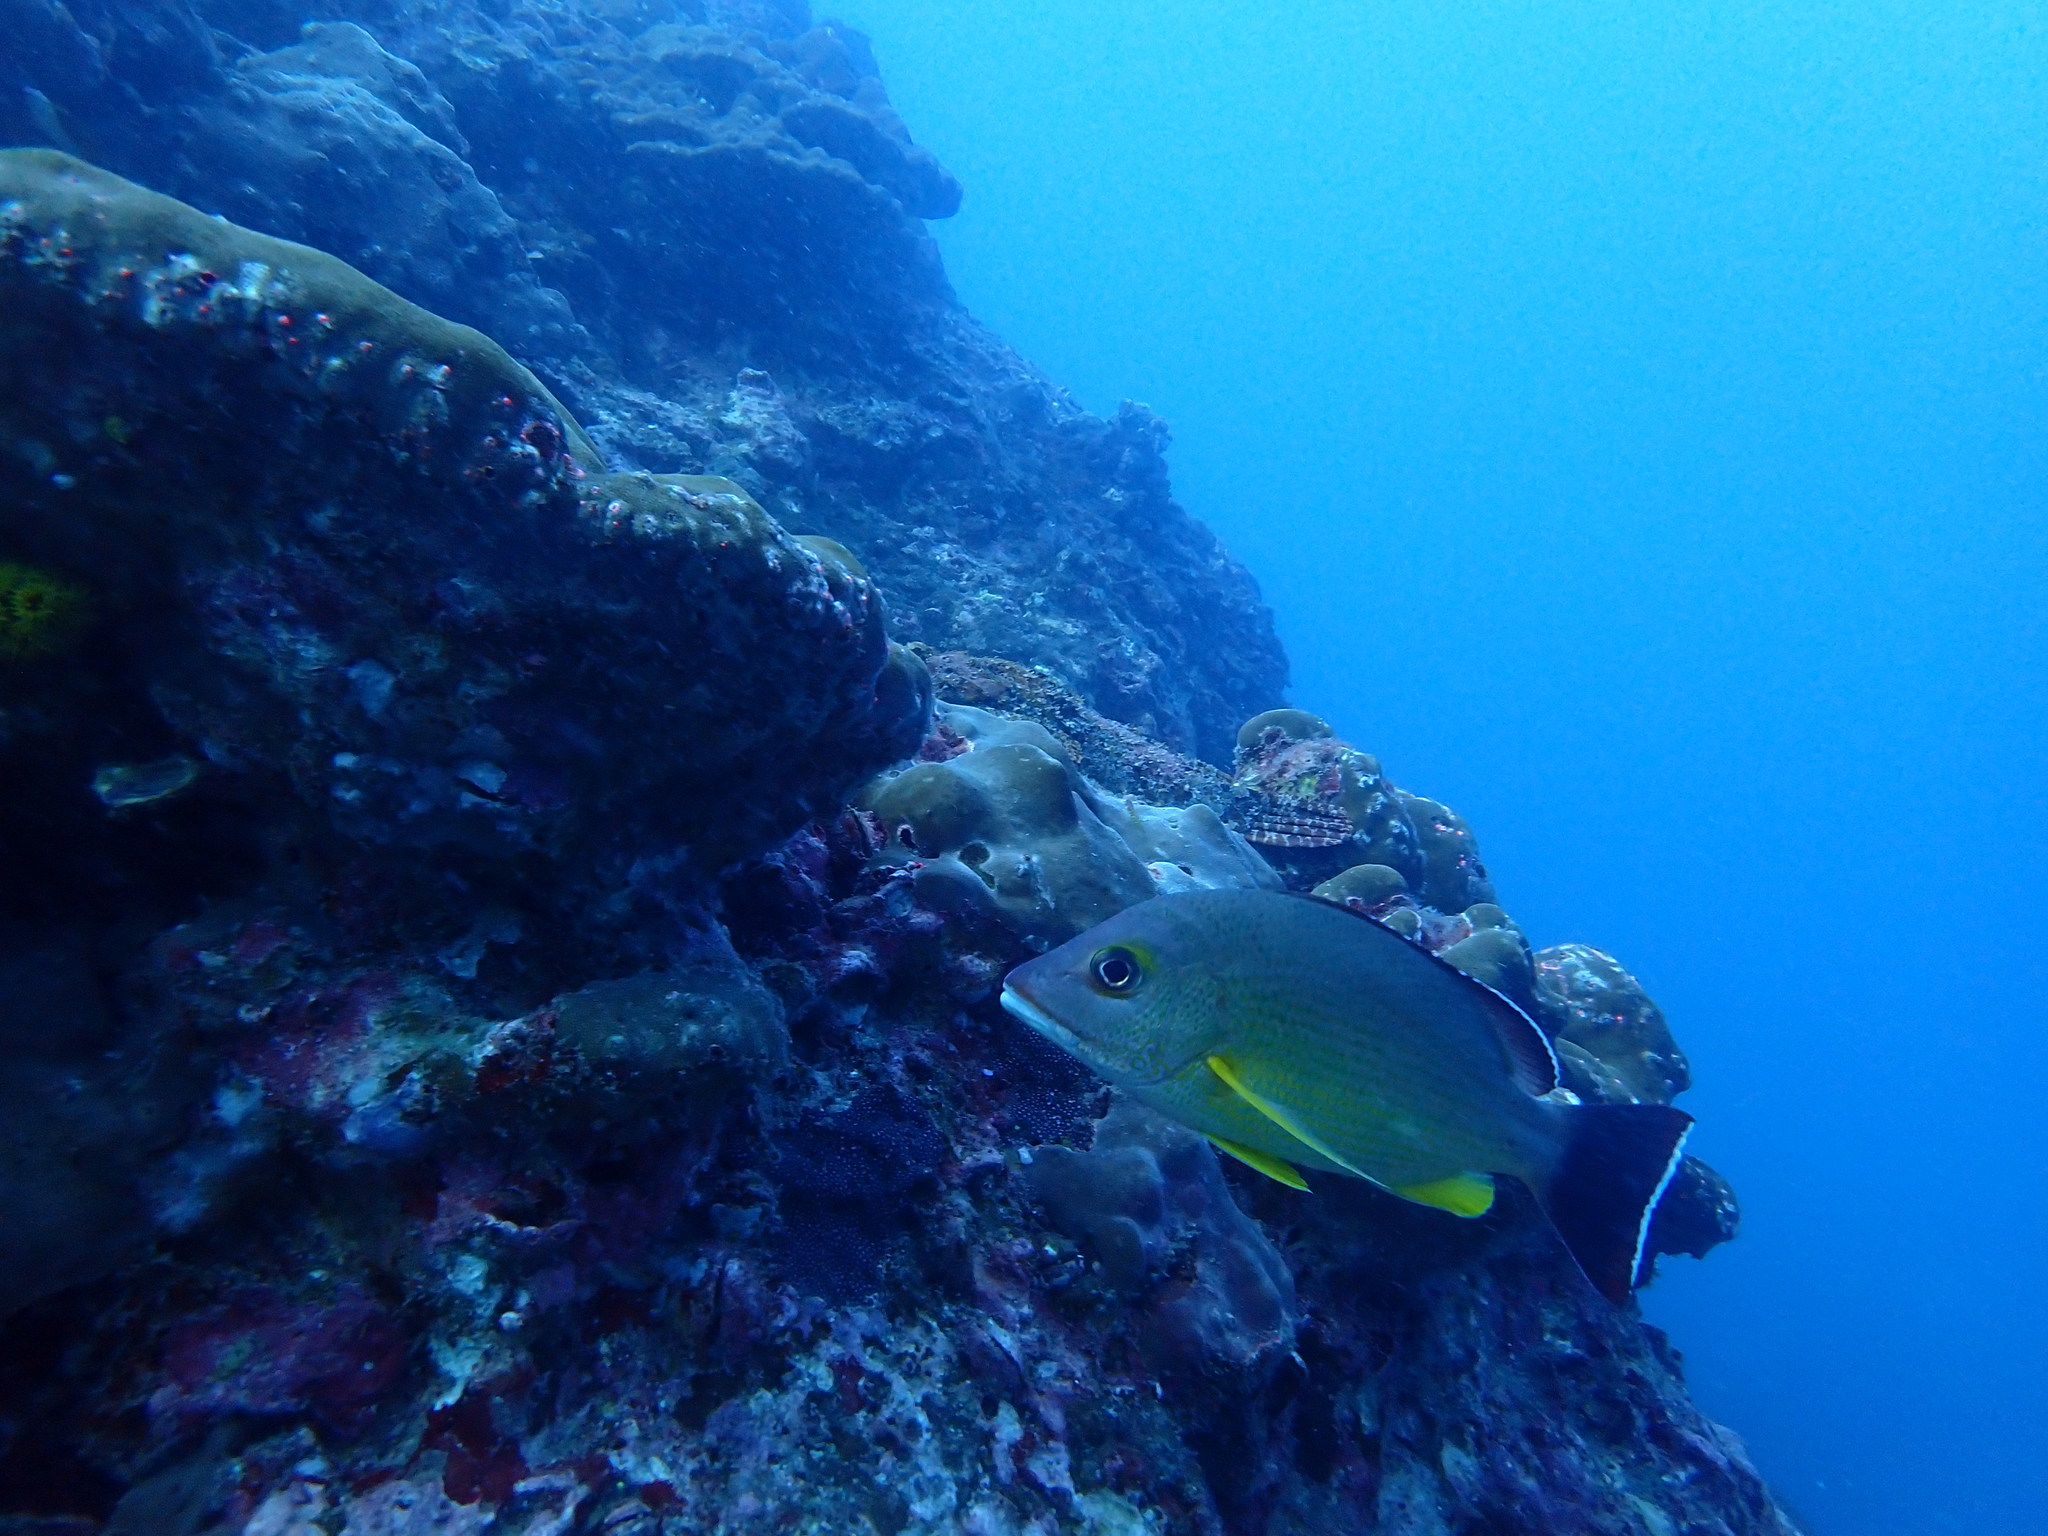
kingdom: Animalia
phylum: Chordata
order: Perciformes
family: Lutjanidae
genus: Lutjanus
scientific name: Lutjanus fulvus
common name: Blacktail snapper
